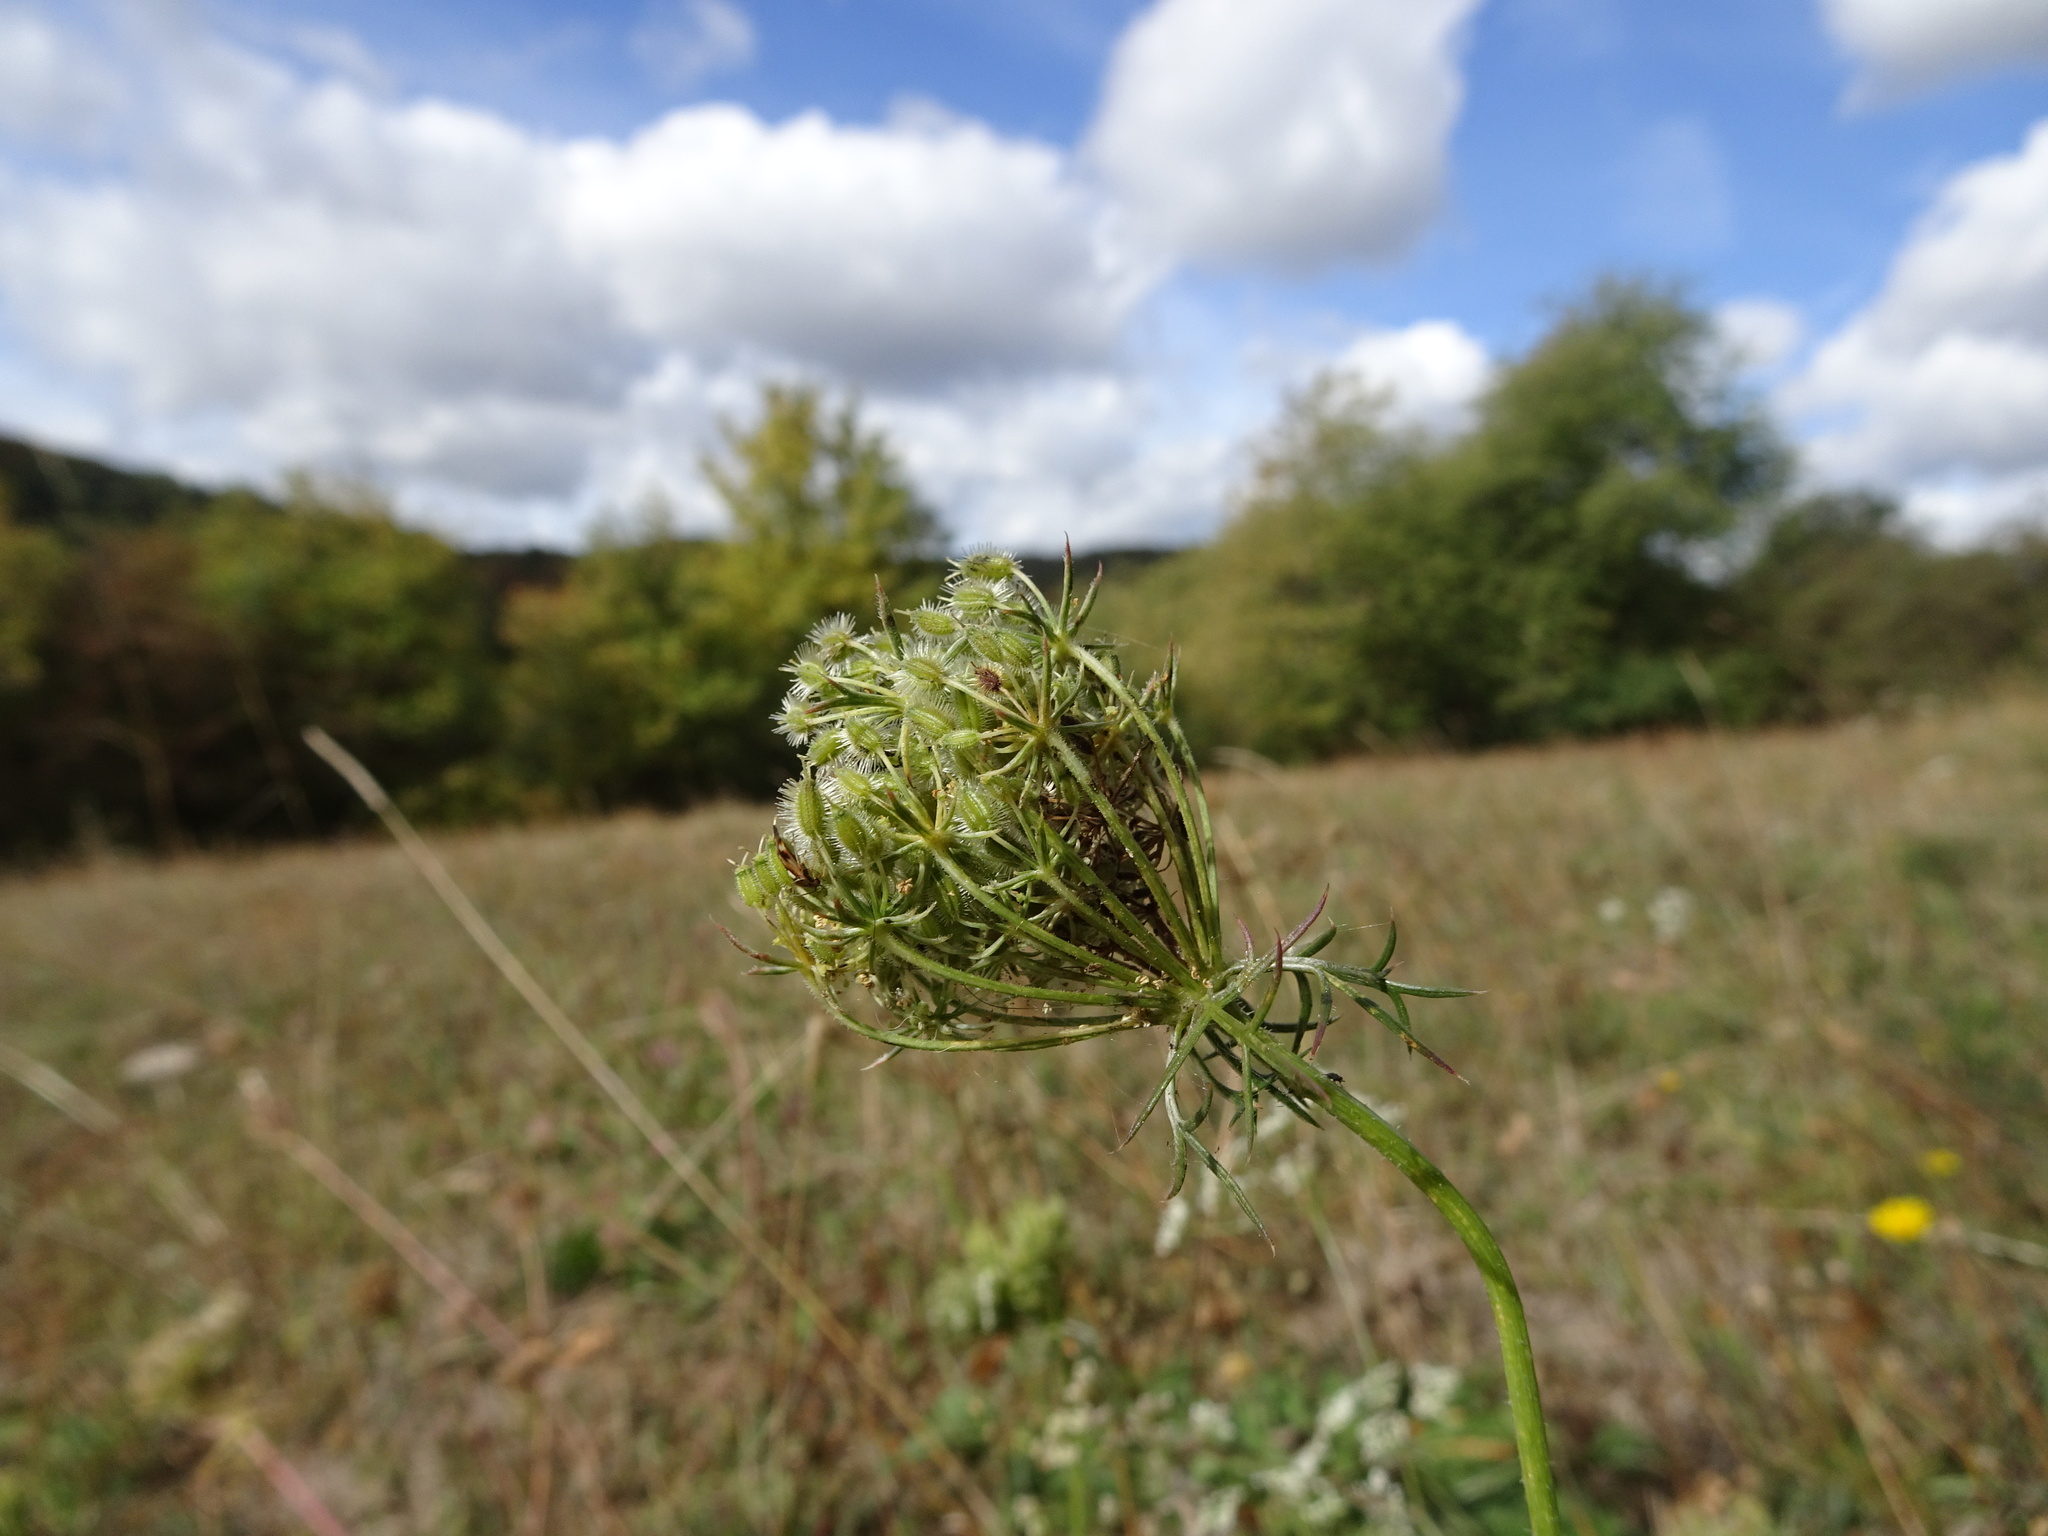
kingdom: Plantae
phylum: Tracheophyta
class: Magnoliopsida
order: Apiales
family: Apiaceae
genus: Daucus
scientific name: Daucus carota
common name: Wild carrot
